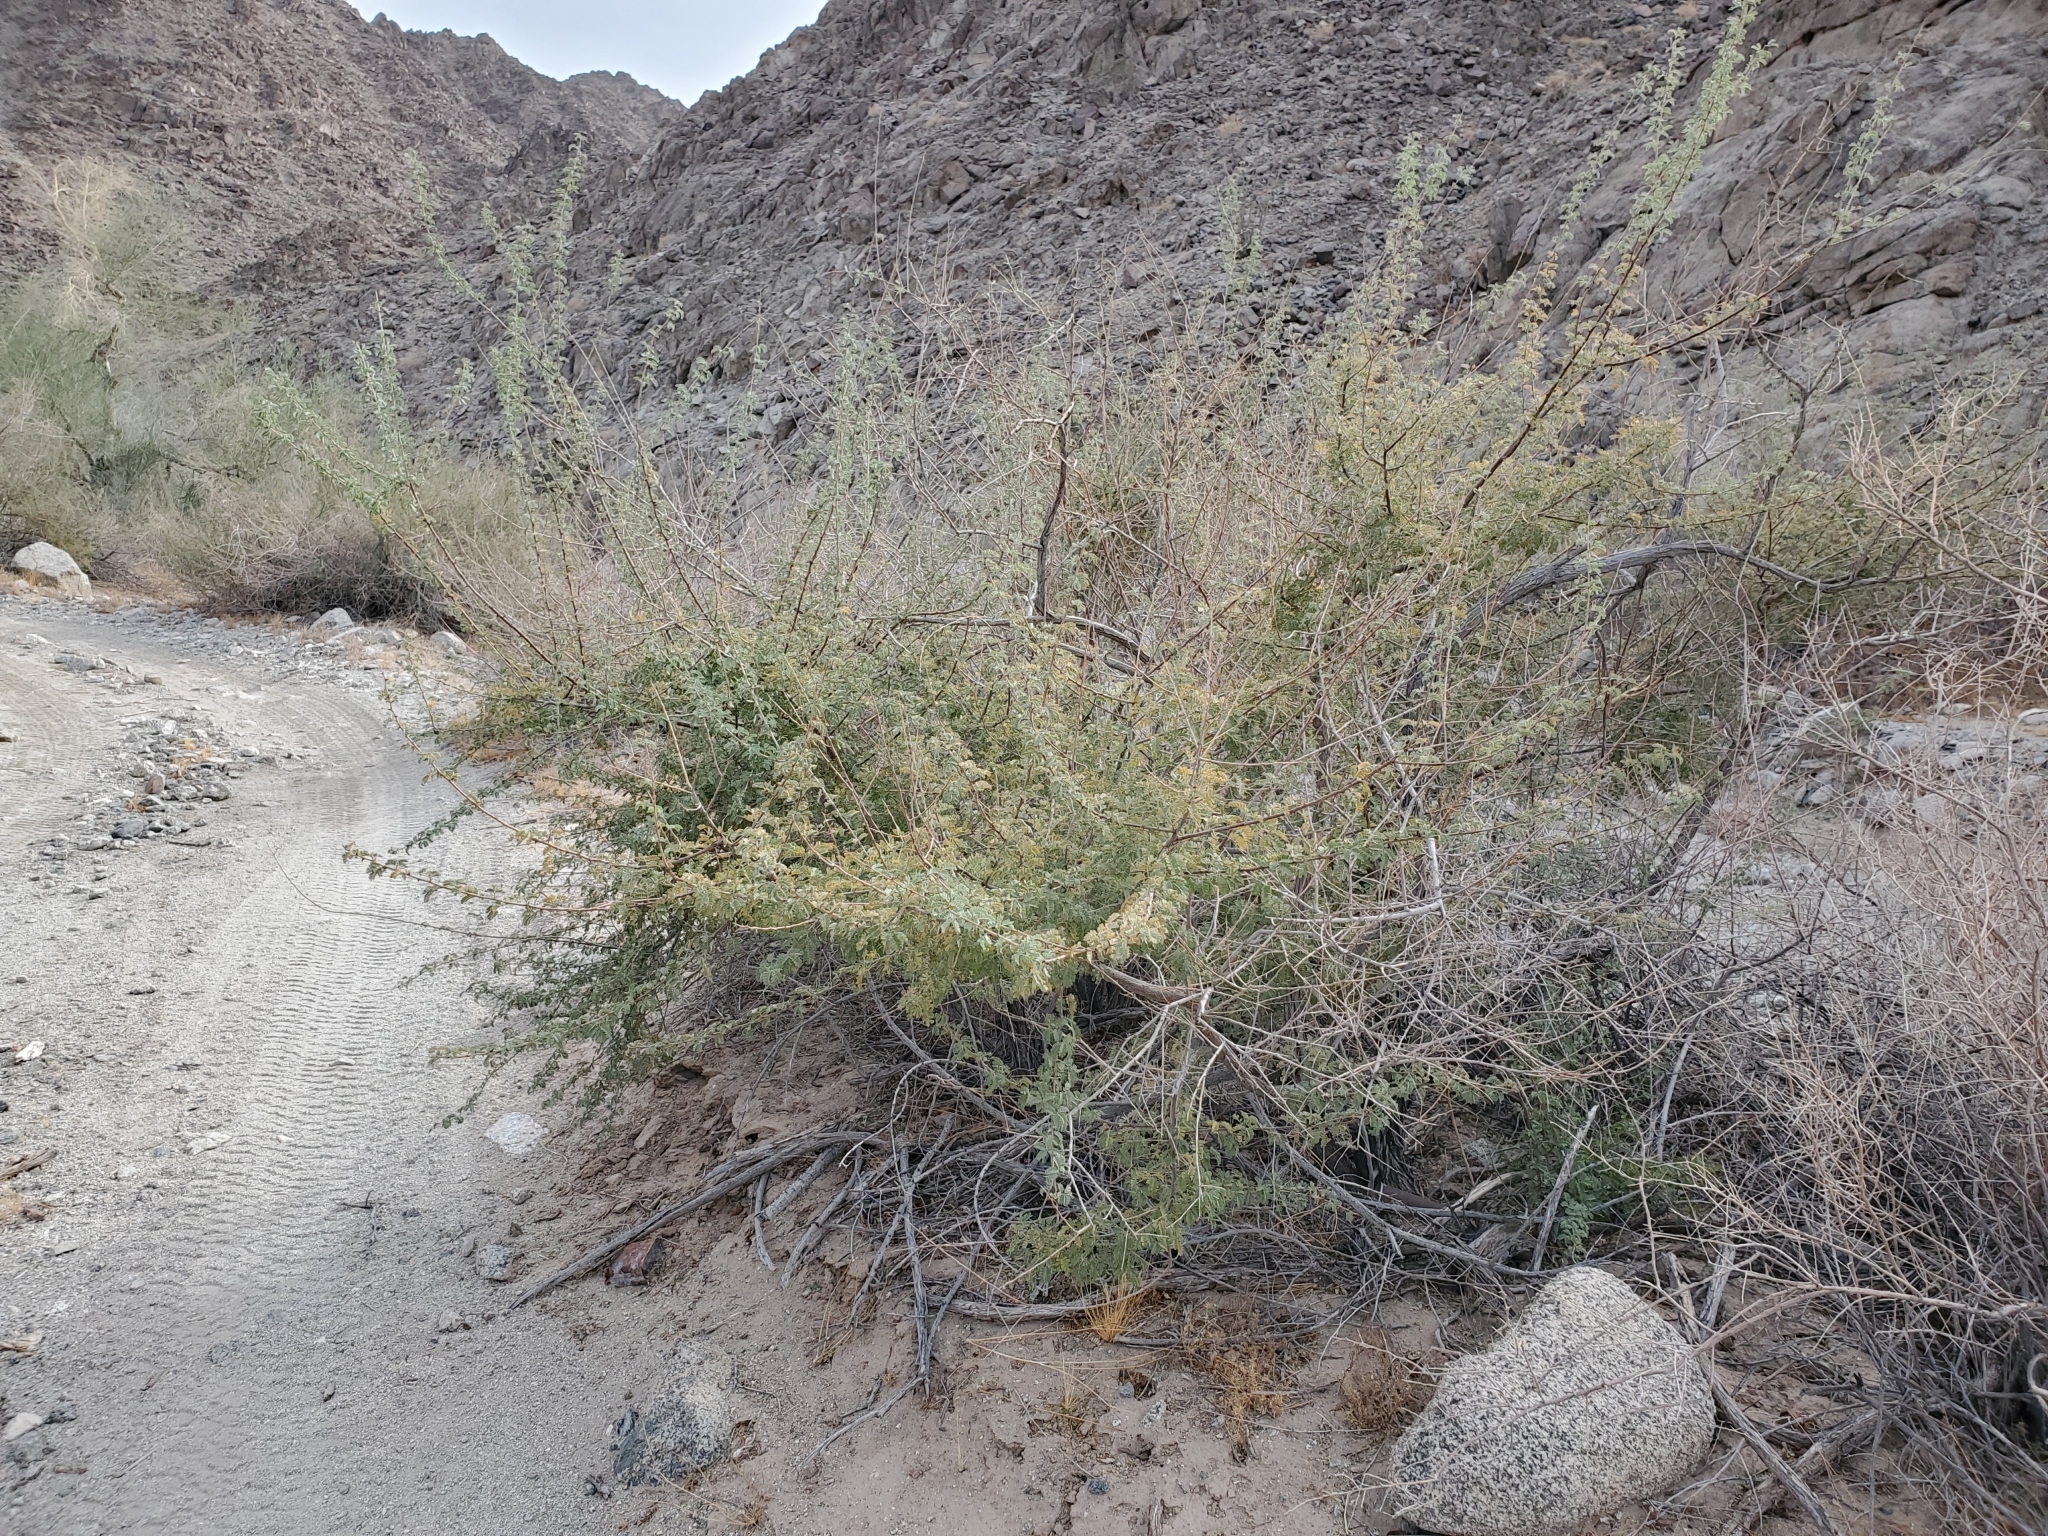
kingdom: Plantae
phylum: Tracheophyta
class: Magnoliopsida
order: Fabales
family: Fabaceae
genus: Senegalia
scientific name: Senegalia greggii
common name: Texas-mimosa
